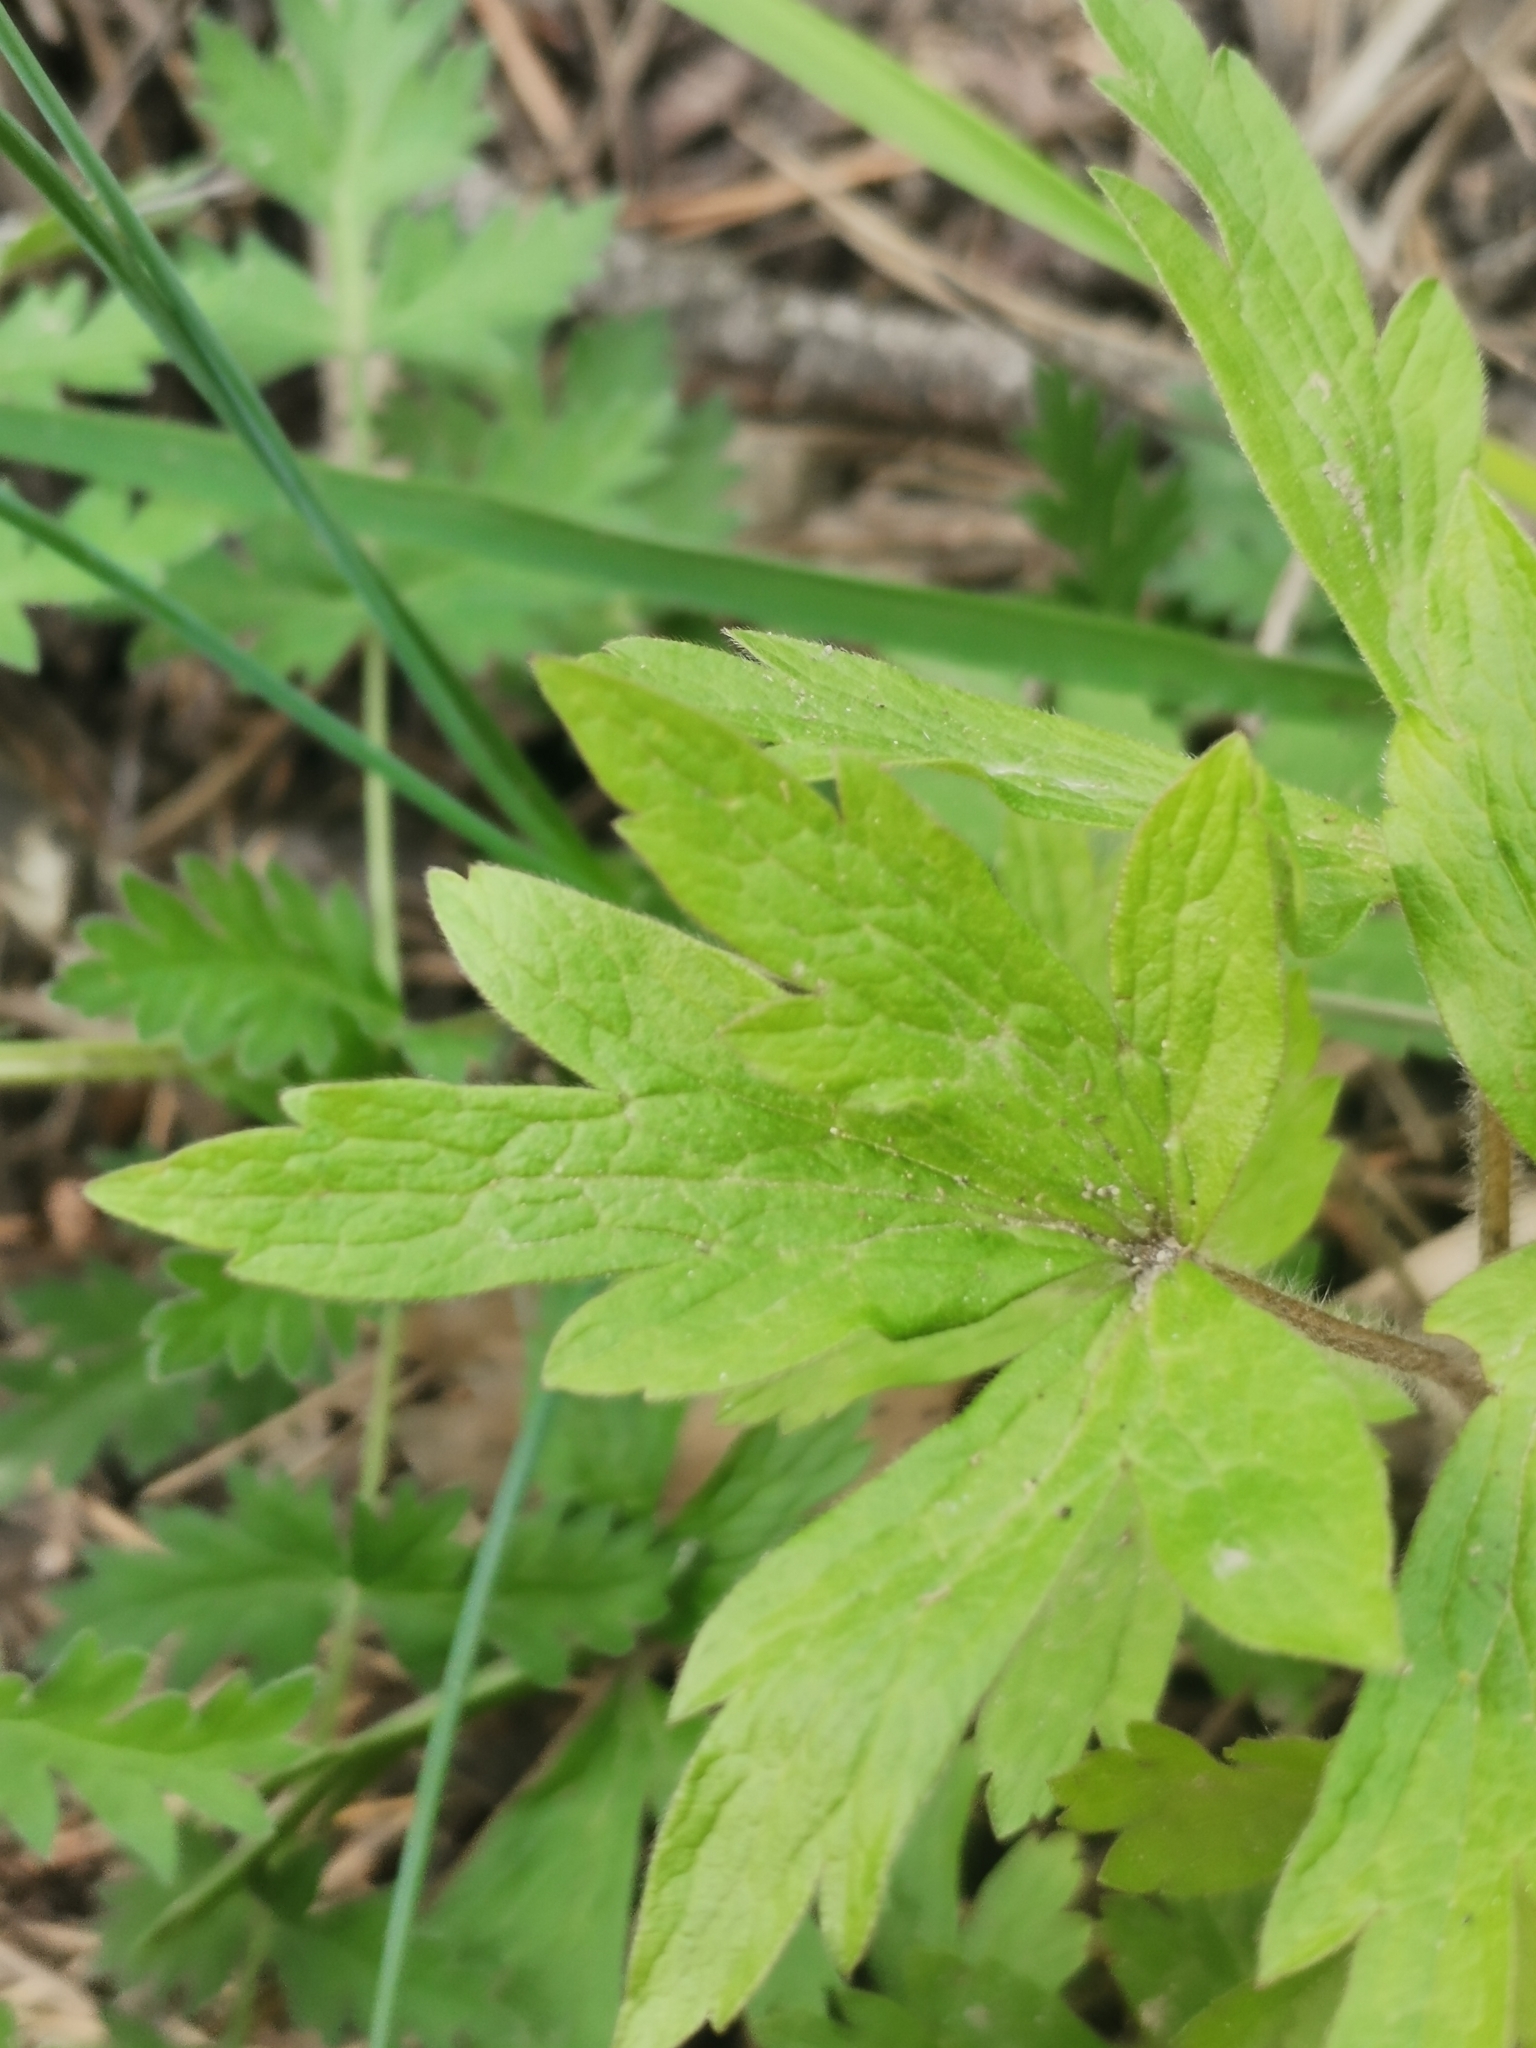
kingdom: Plantae
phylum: Tracheophyta
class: Magnoliopsida
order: Ranunculales
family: Ranunculaceae
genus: Anemone
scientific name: Anemone sylvestris
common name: Snowdrop anemone
